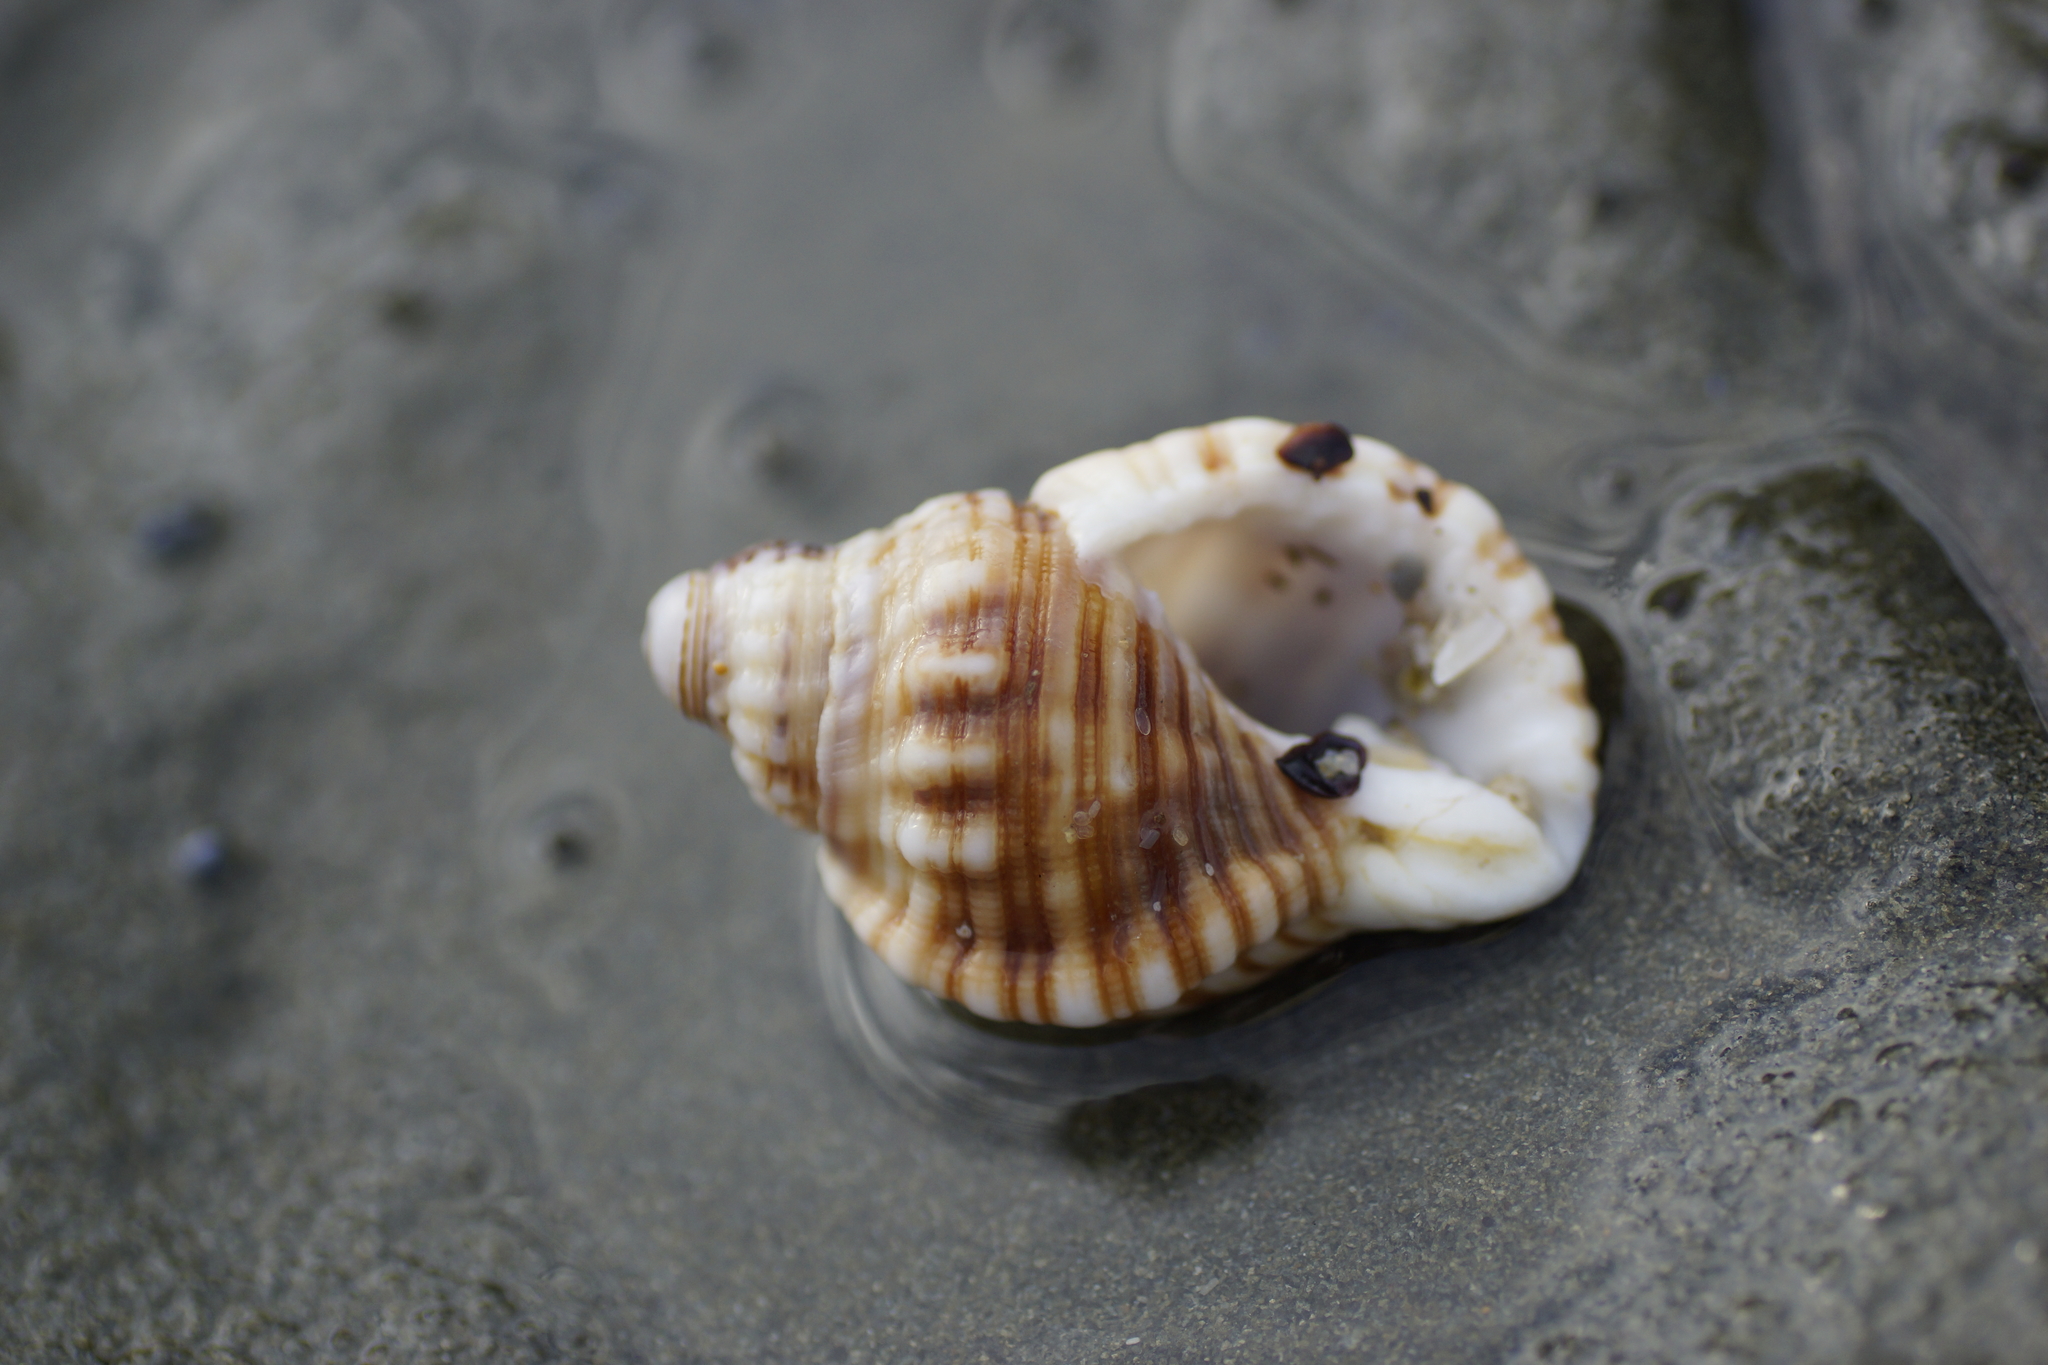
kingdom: Animalia
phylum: Mollusca
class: Gastropoda
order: Littorinimorpha
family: Cymatiidae
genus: Cabestana
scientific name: Cabestana spengleri
